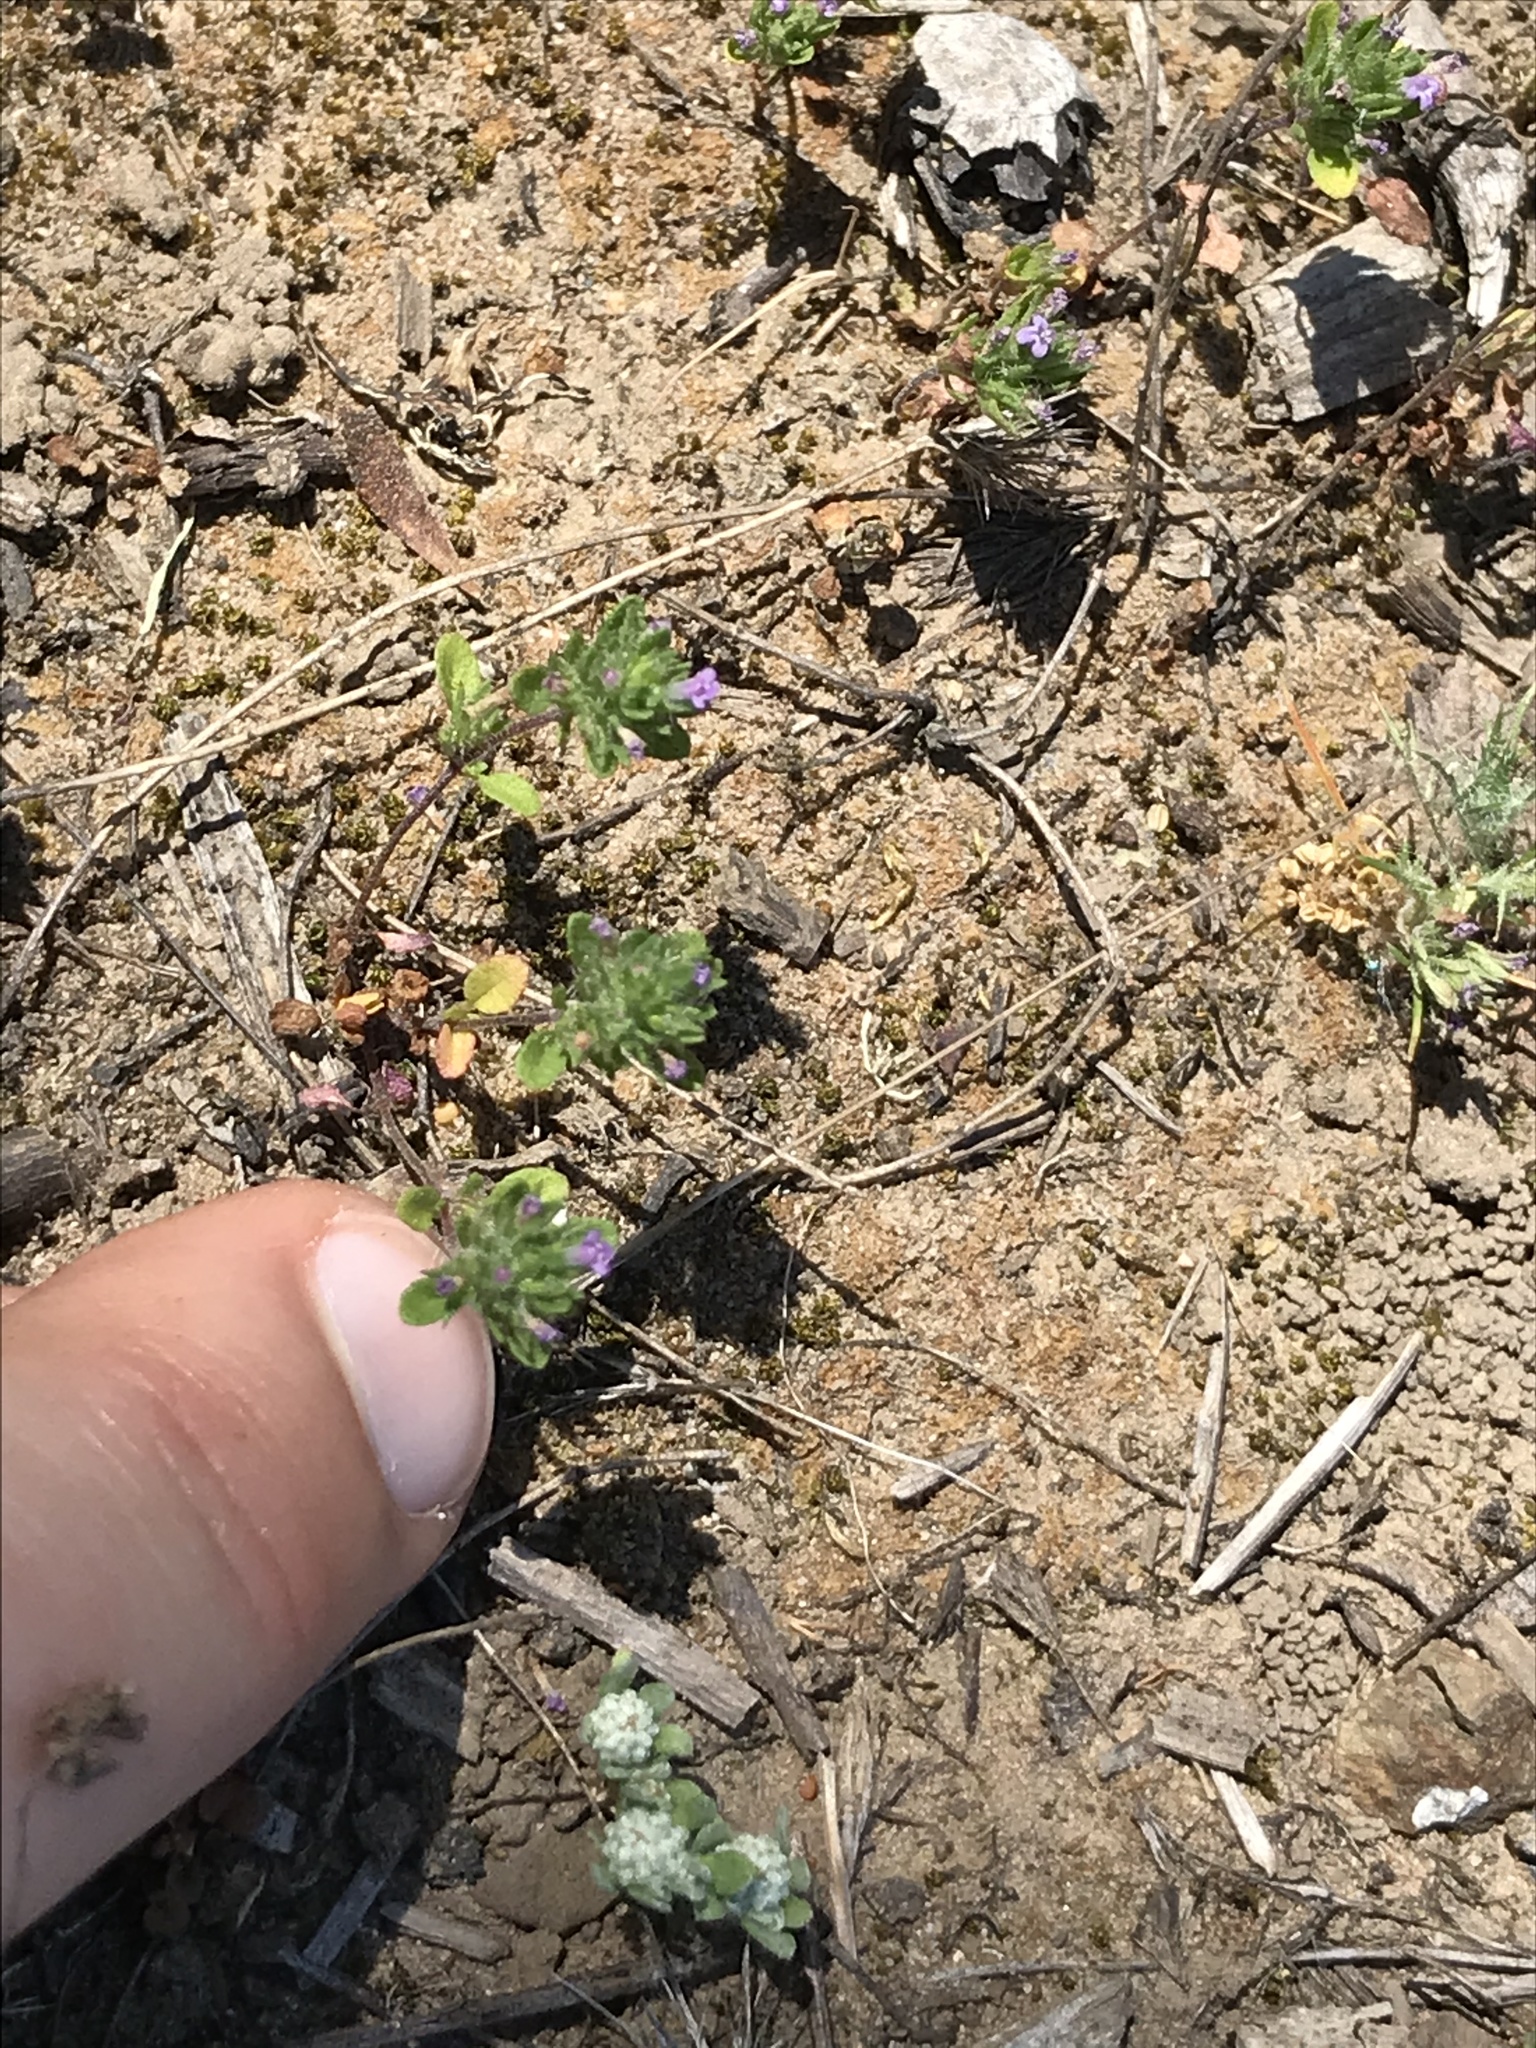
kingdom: Plantae
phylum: Tracheophyta
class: Magnoliopsida
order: Lamiales
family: Lamiaceae
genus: Pogogyne
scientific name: Pogogyne serpylloides
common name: Thymeleaf mesamint
